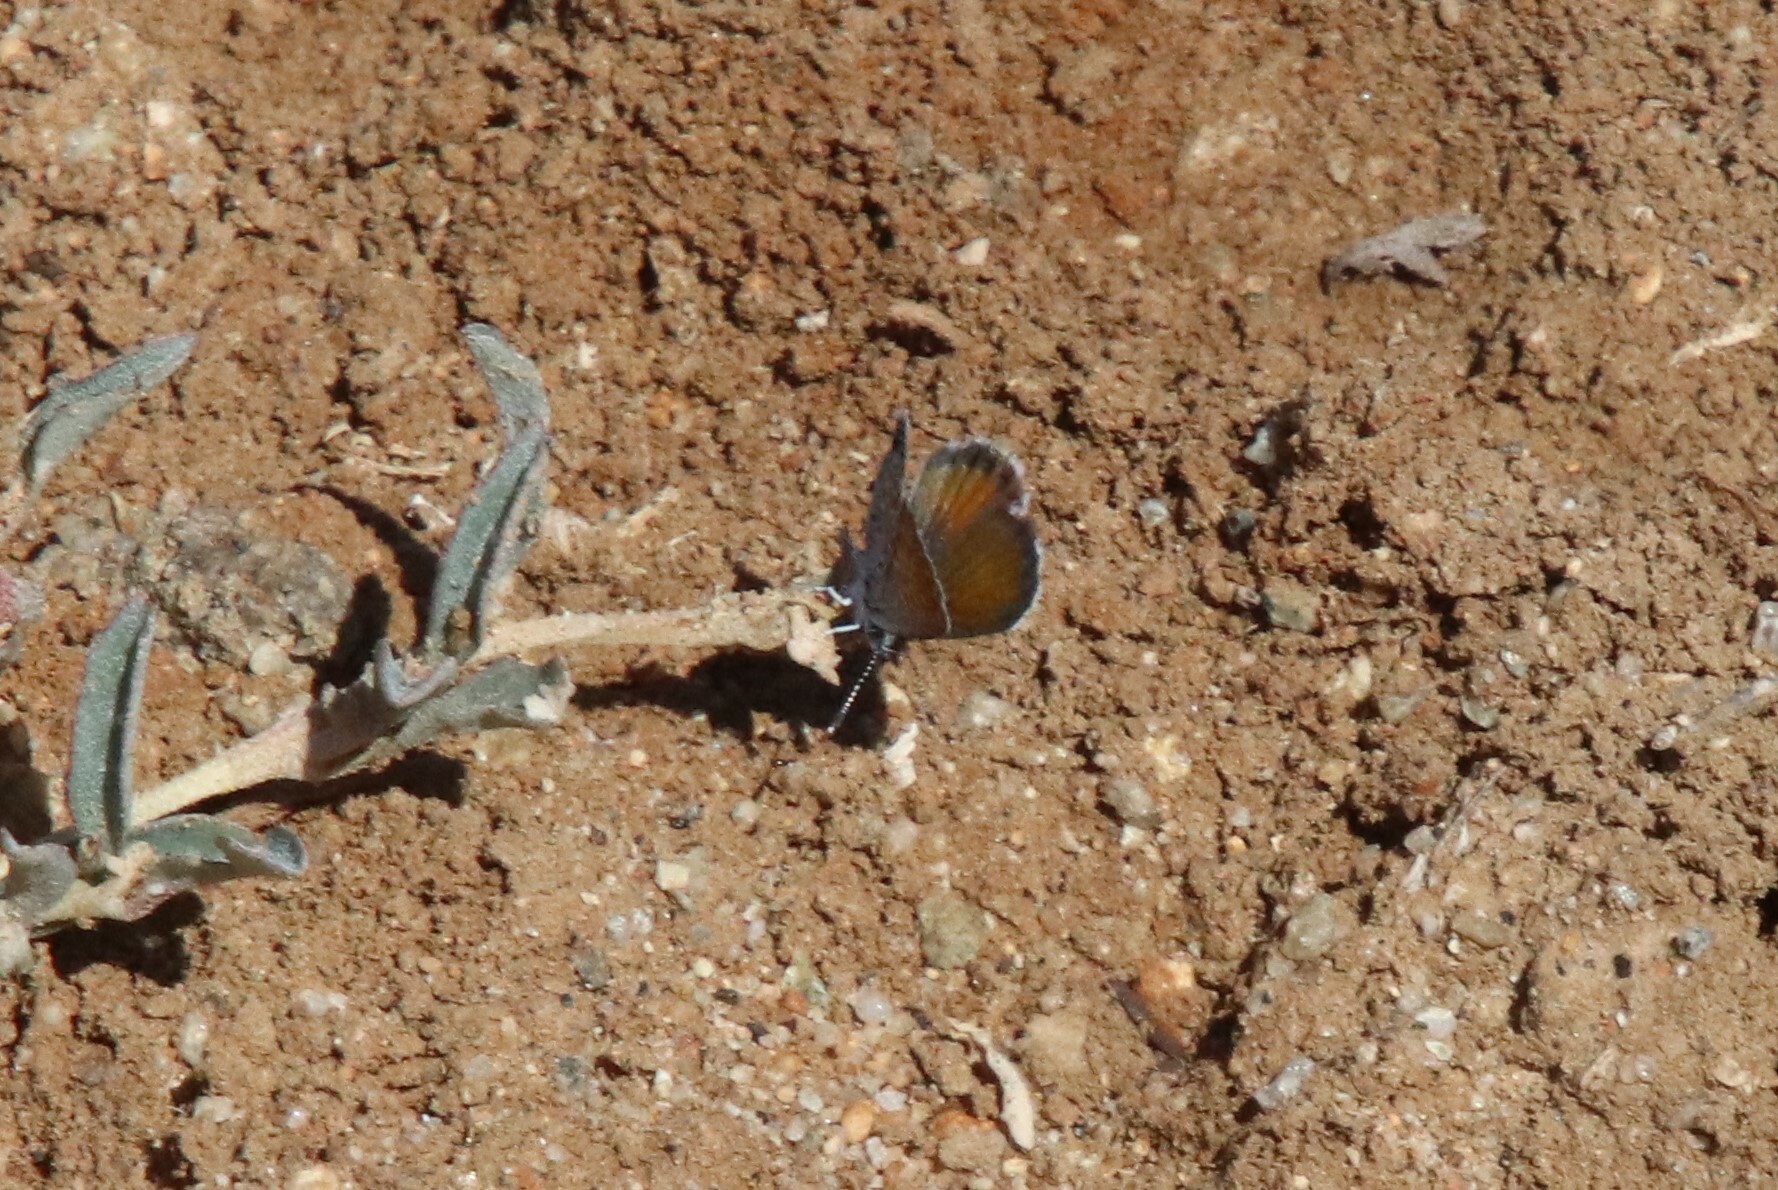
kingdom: Animalia
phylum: Arthropoda
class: Insecta
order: Lepidoptera
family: Lycaenidae
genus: Brephidium
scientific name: Brephidium exilis
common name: Pygmy blue
